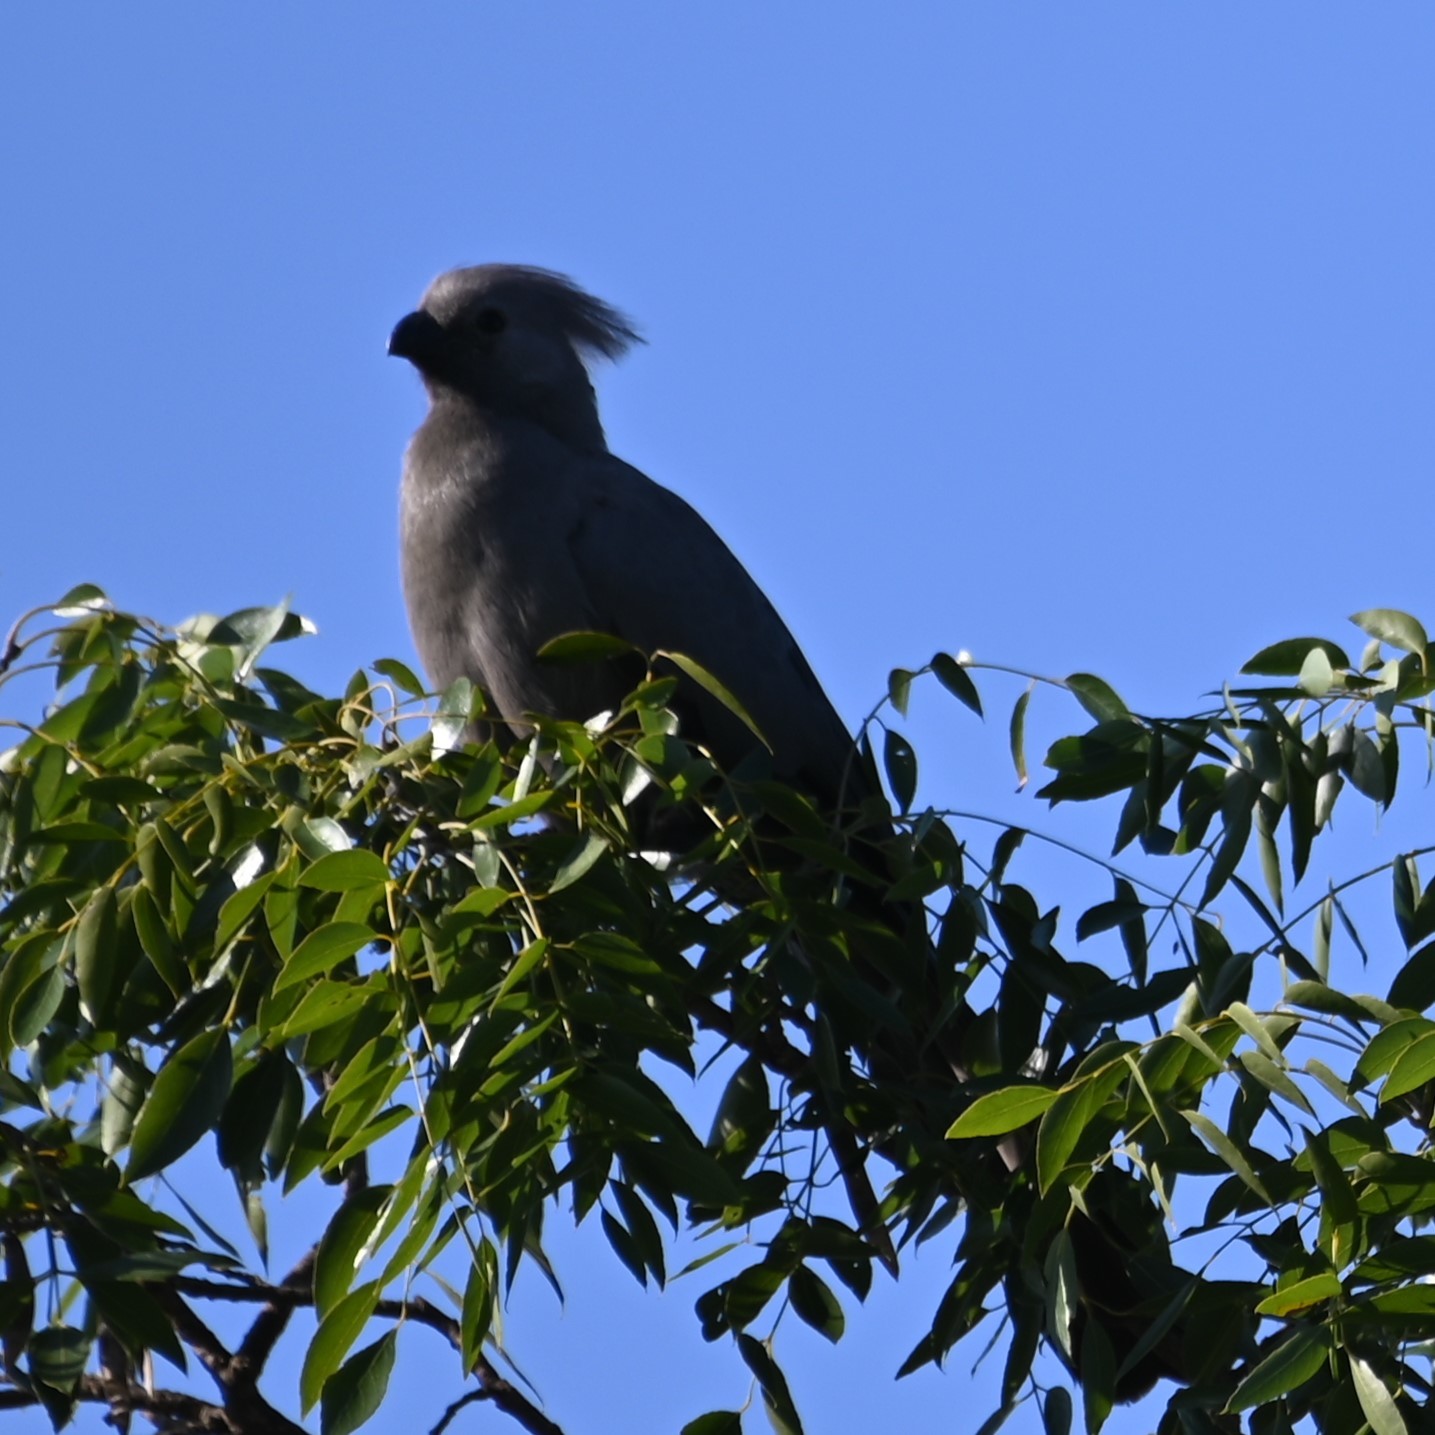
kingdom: Animalia
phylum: Chordata
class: Aves
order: Musophagiformes
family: Musophagidae
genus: Corythaixoides
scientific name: Corythaixoides concolor
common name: Grey go-away-bird
